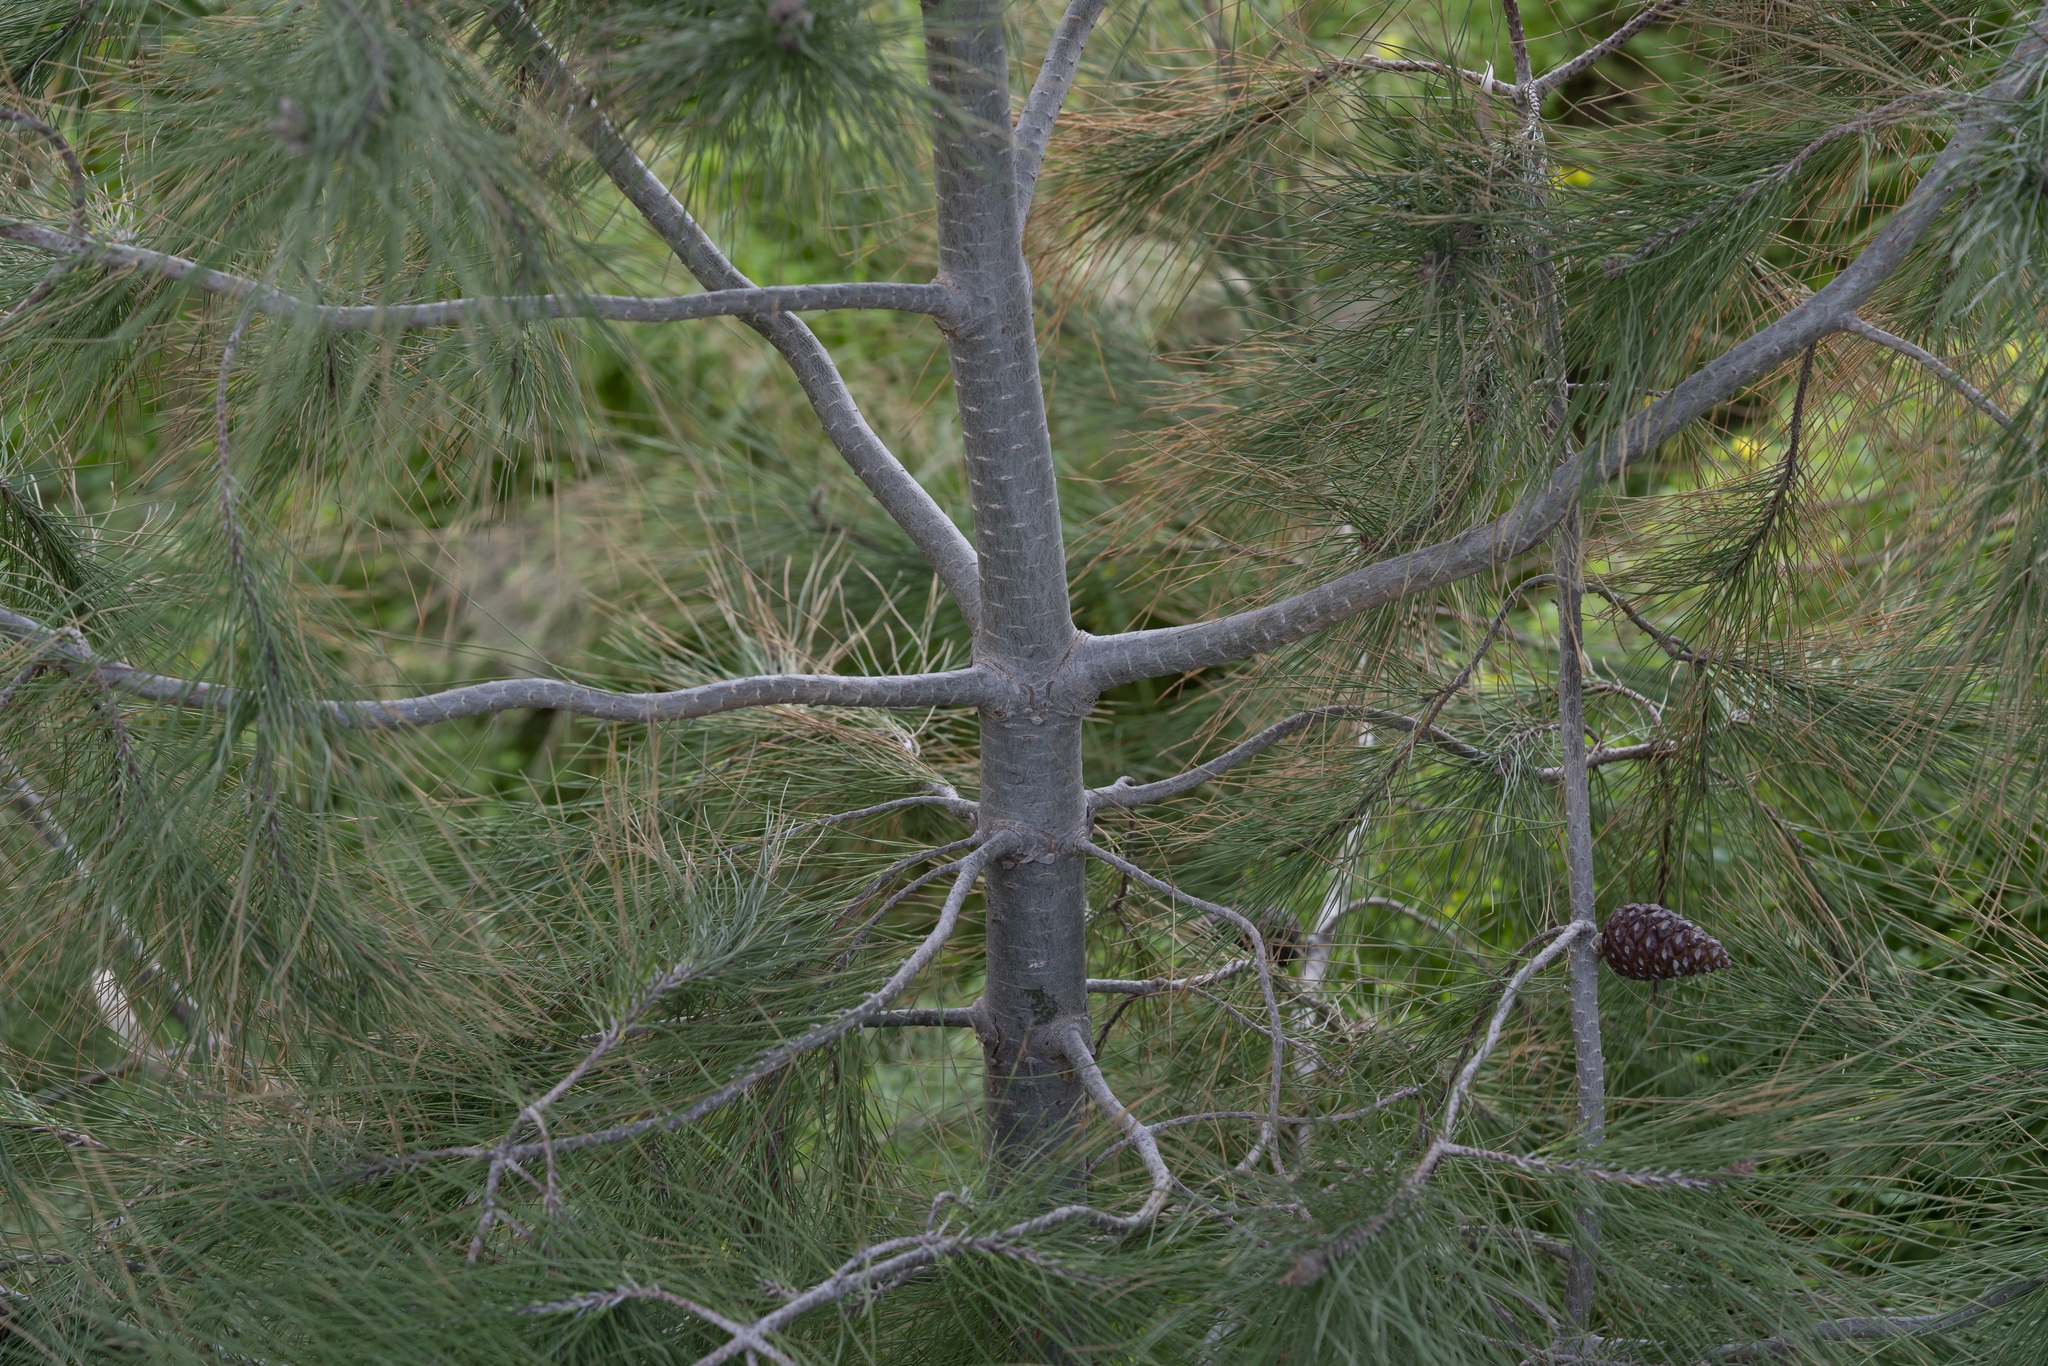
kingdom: Plantae
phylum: Tracheophyta
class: Pinopsida
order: Pinales
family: Pinaceae
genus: Pinus
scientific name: Pinus brutia
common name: Turkish pine
